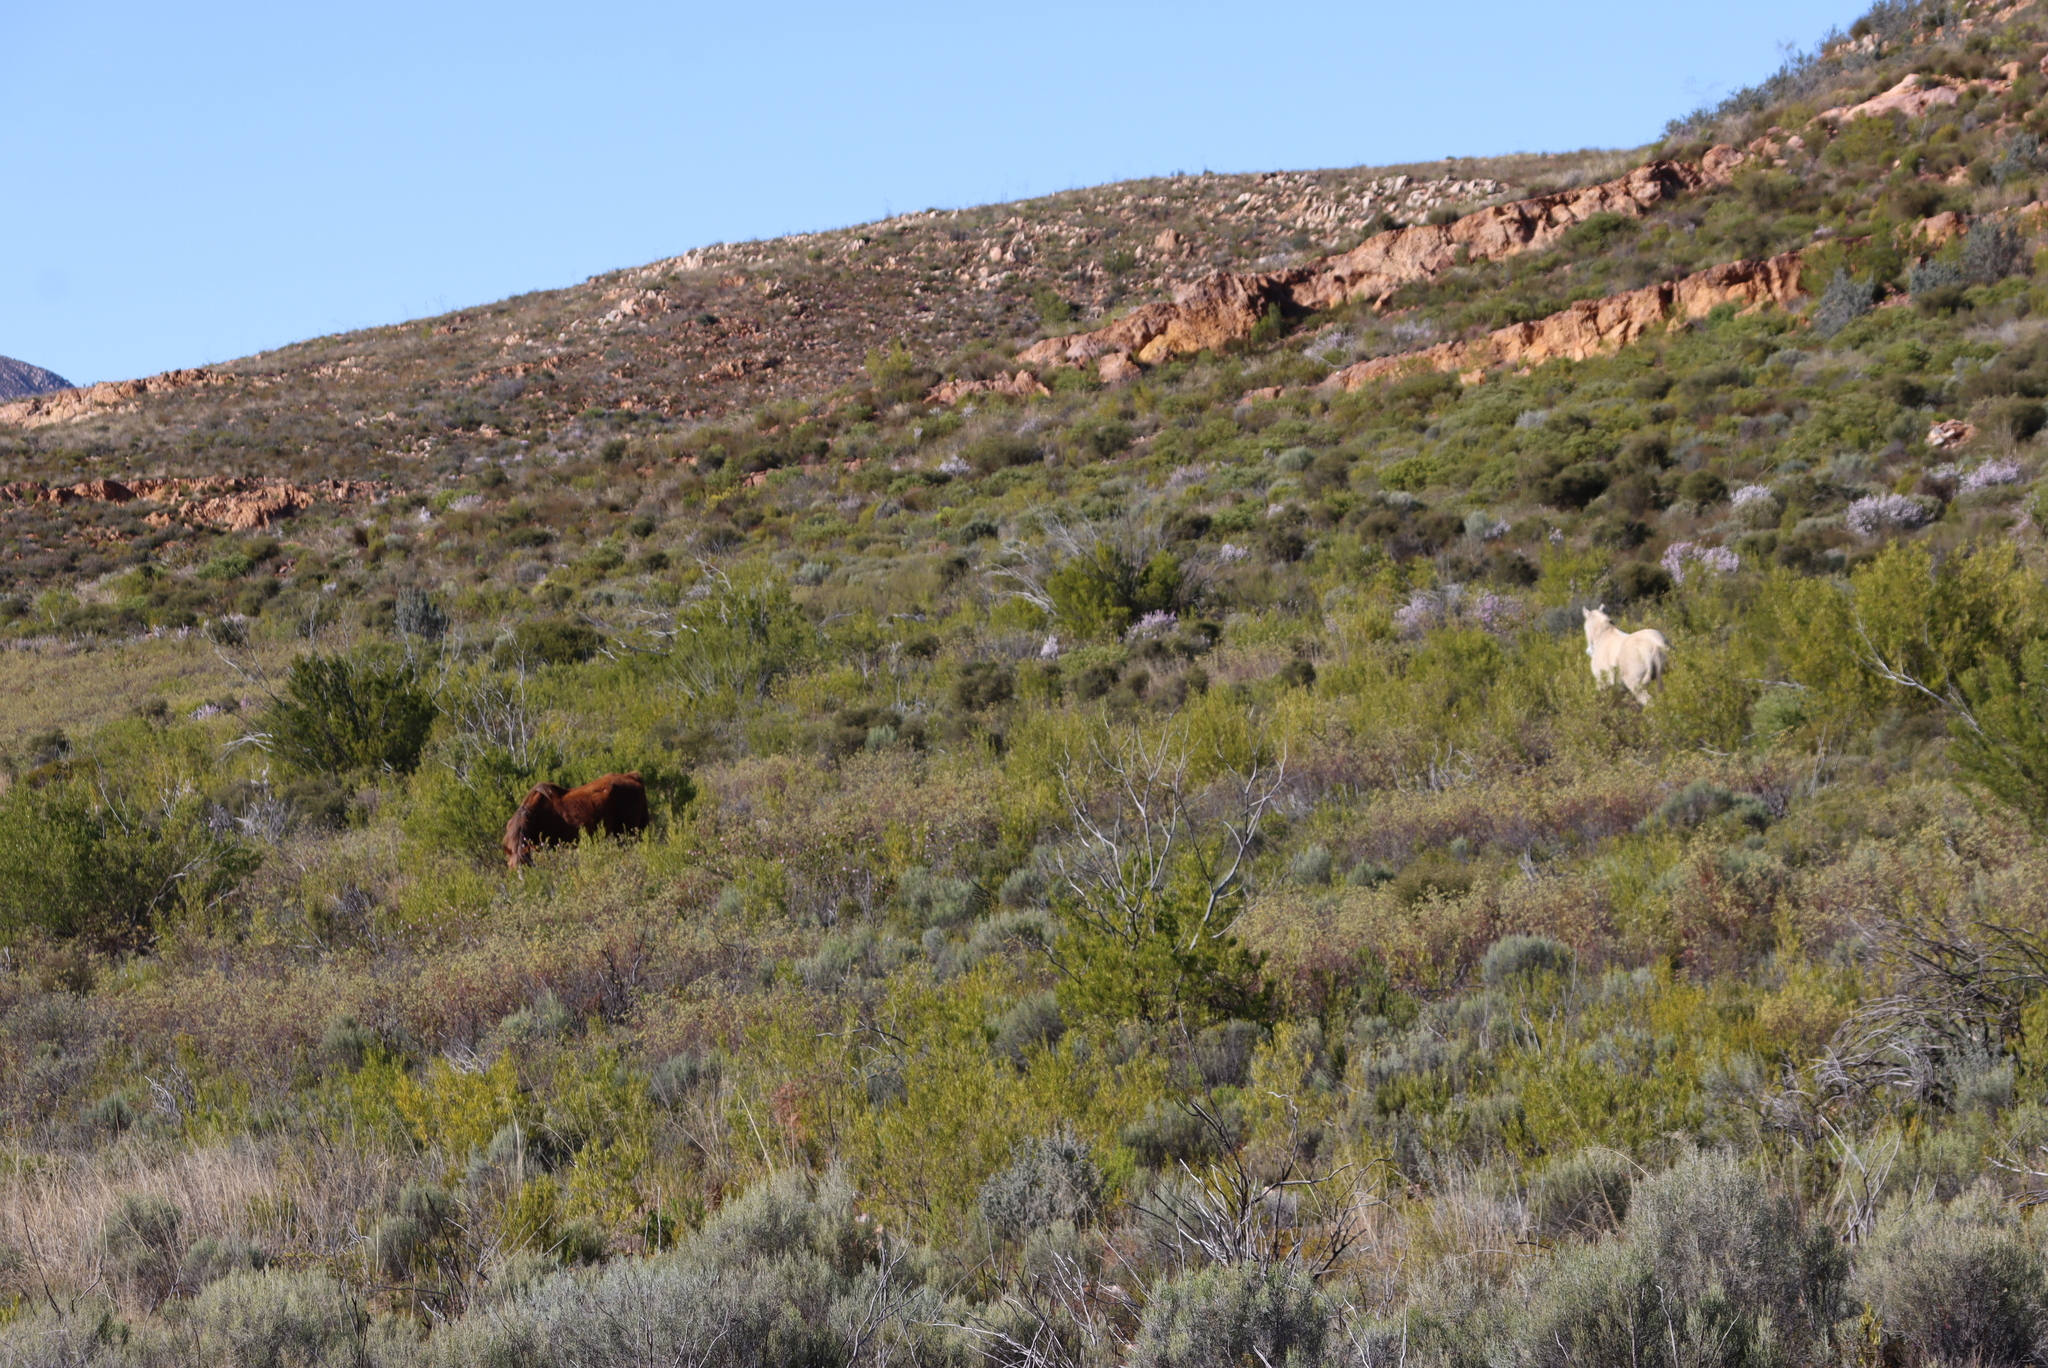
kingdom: Plantae
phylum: Tracheophyta
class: Magnoliopsida
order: Sapindales
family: Sapindaceae
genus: Dodonaea
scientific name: Dodonaea viscosa
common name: Hopbush
